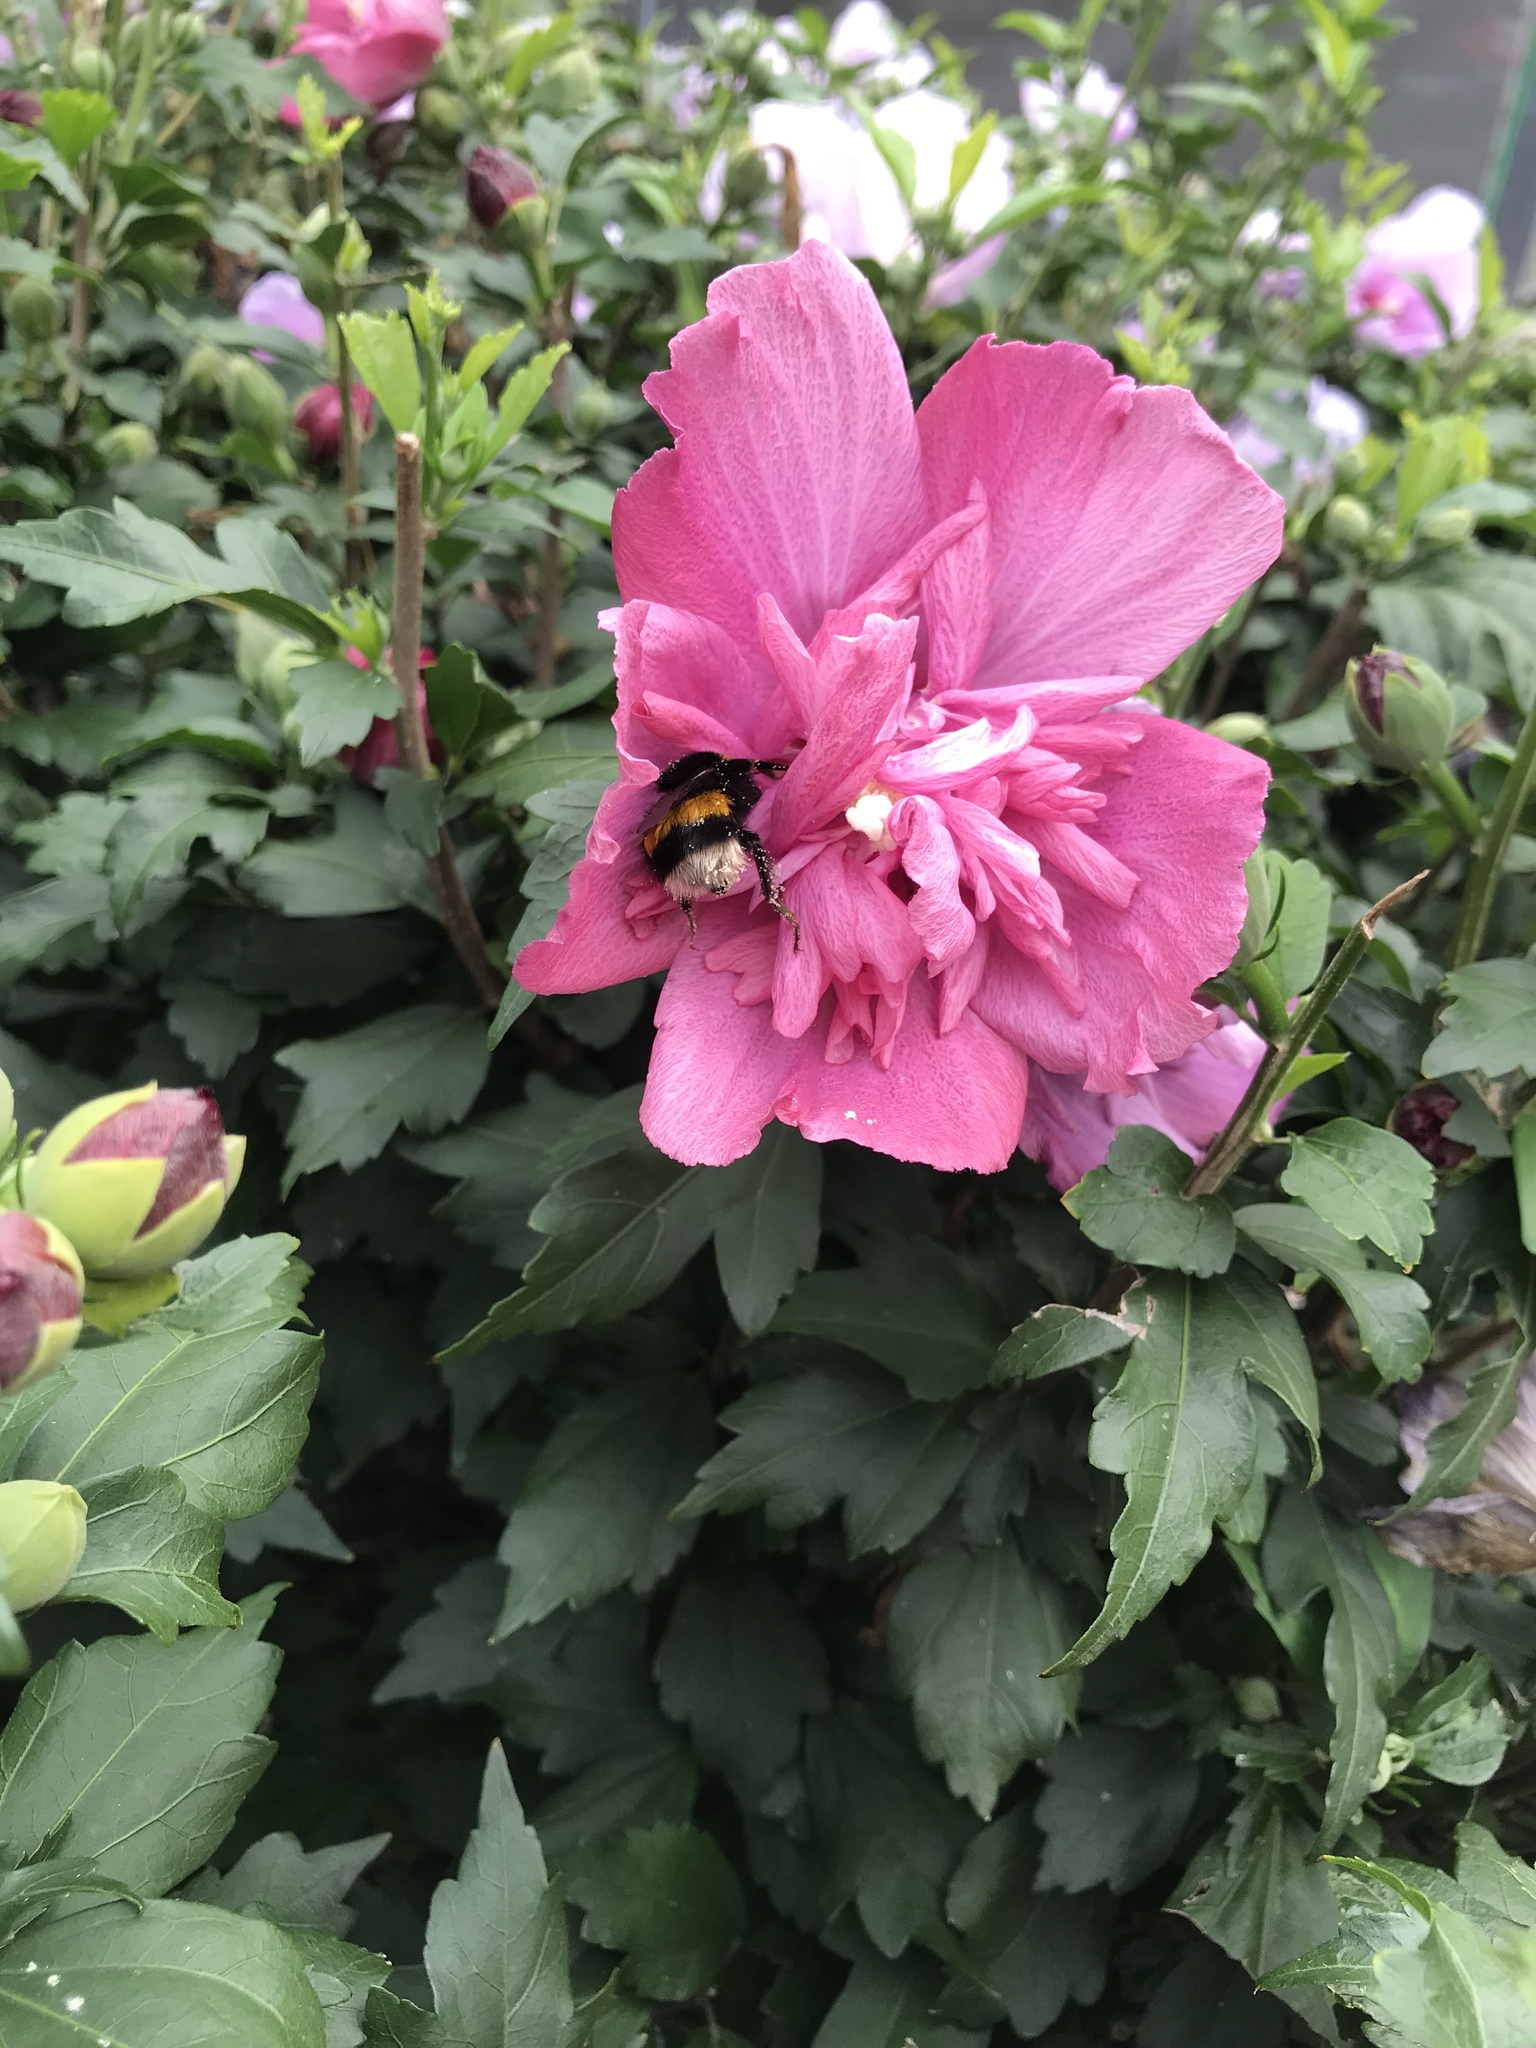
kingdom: Animalia
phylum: Arthropoda
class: Insecta
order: Hymenoptera
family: Apidae
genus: Bombus
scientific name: Bombus terrestris
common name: Buff-tailed bumblebee
